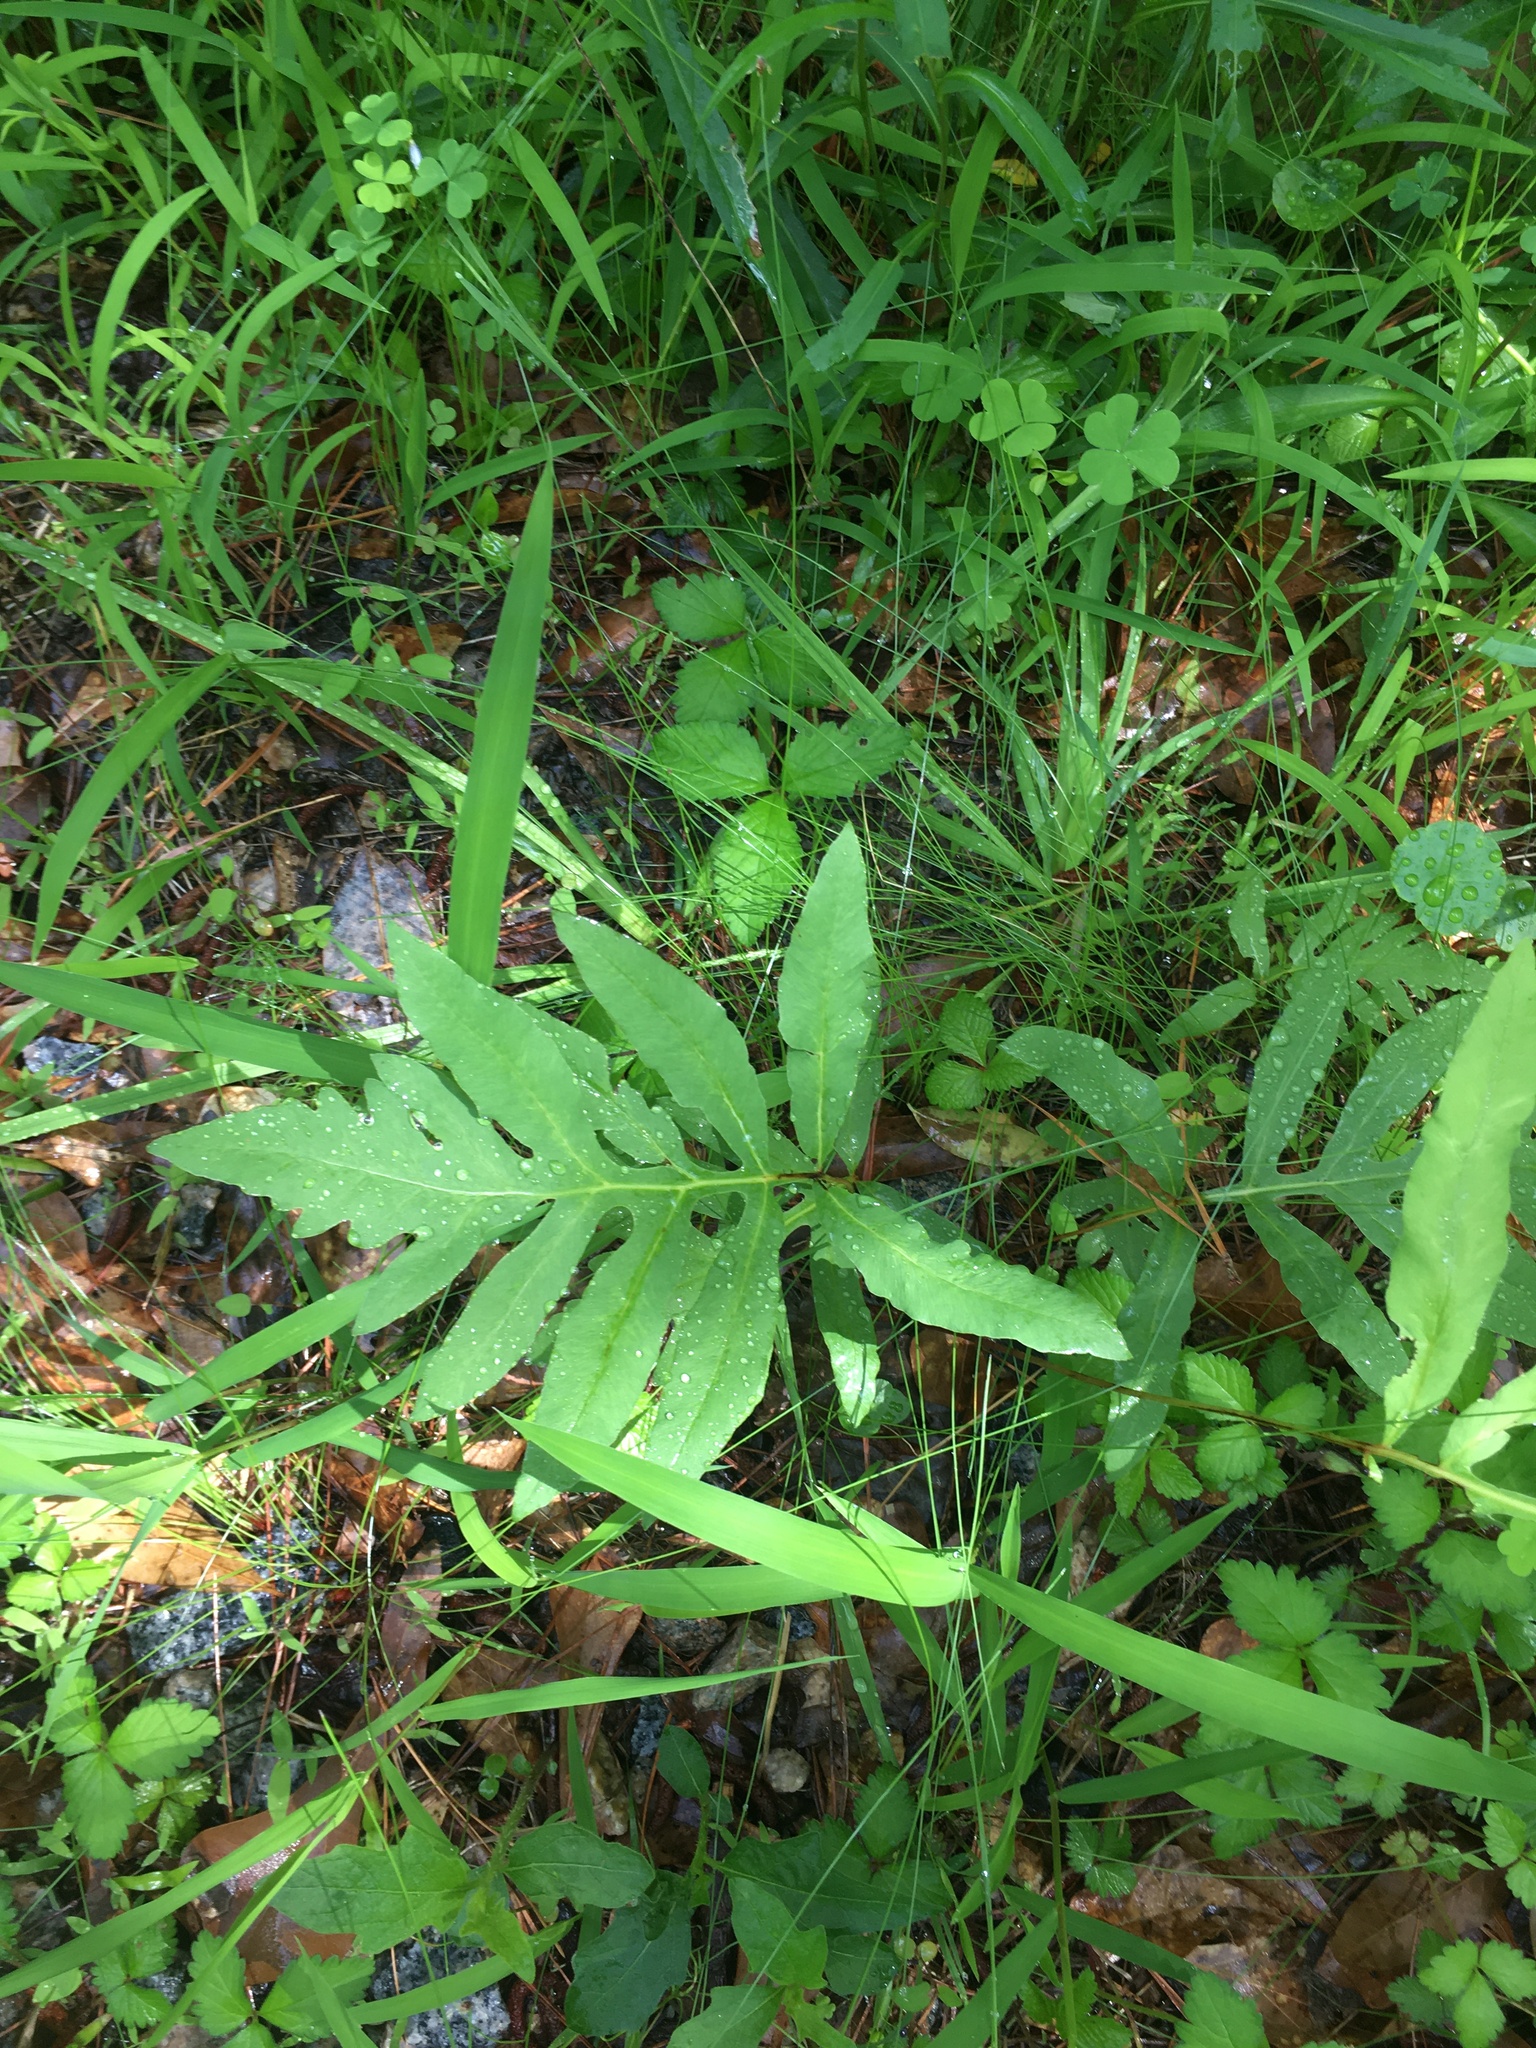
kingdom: Plantae
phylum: Tracheophyta
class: Polypodiopsida
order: Polypodiales
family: Onocleaceae
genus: Onoclea
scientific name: Onoclea sensibilis
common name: Sensitive fern
